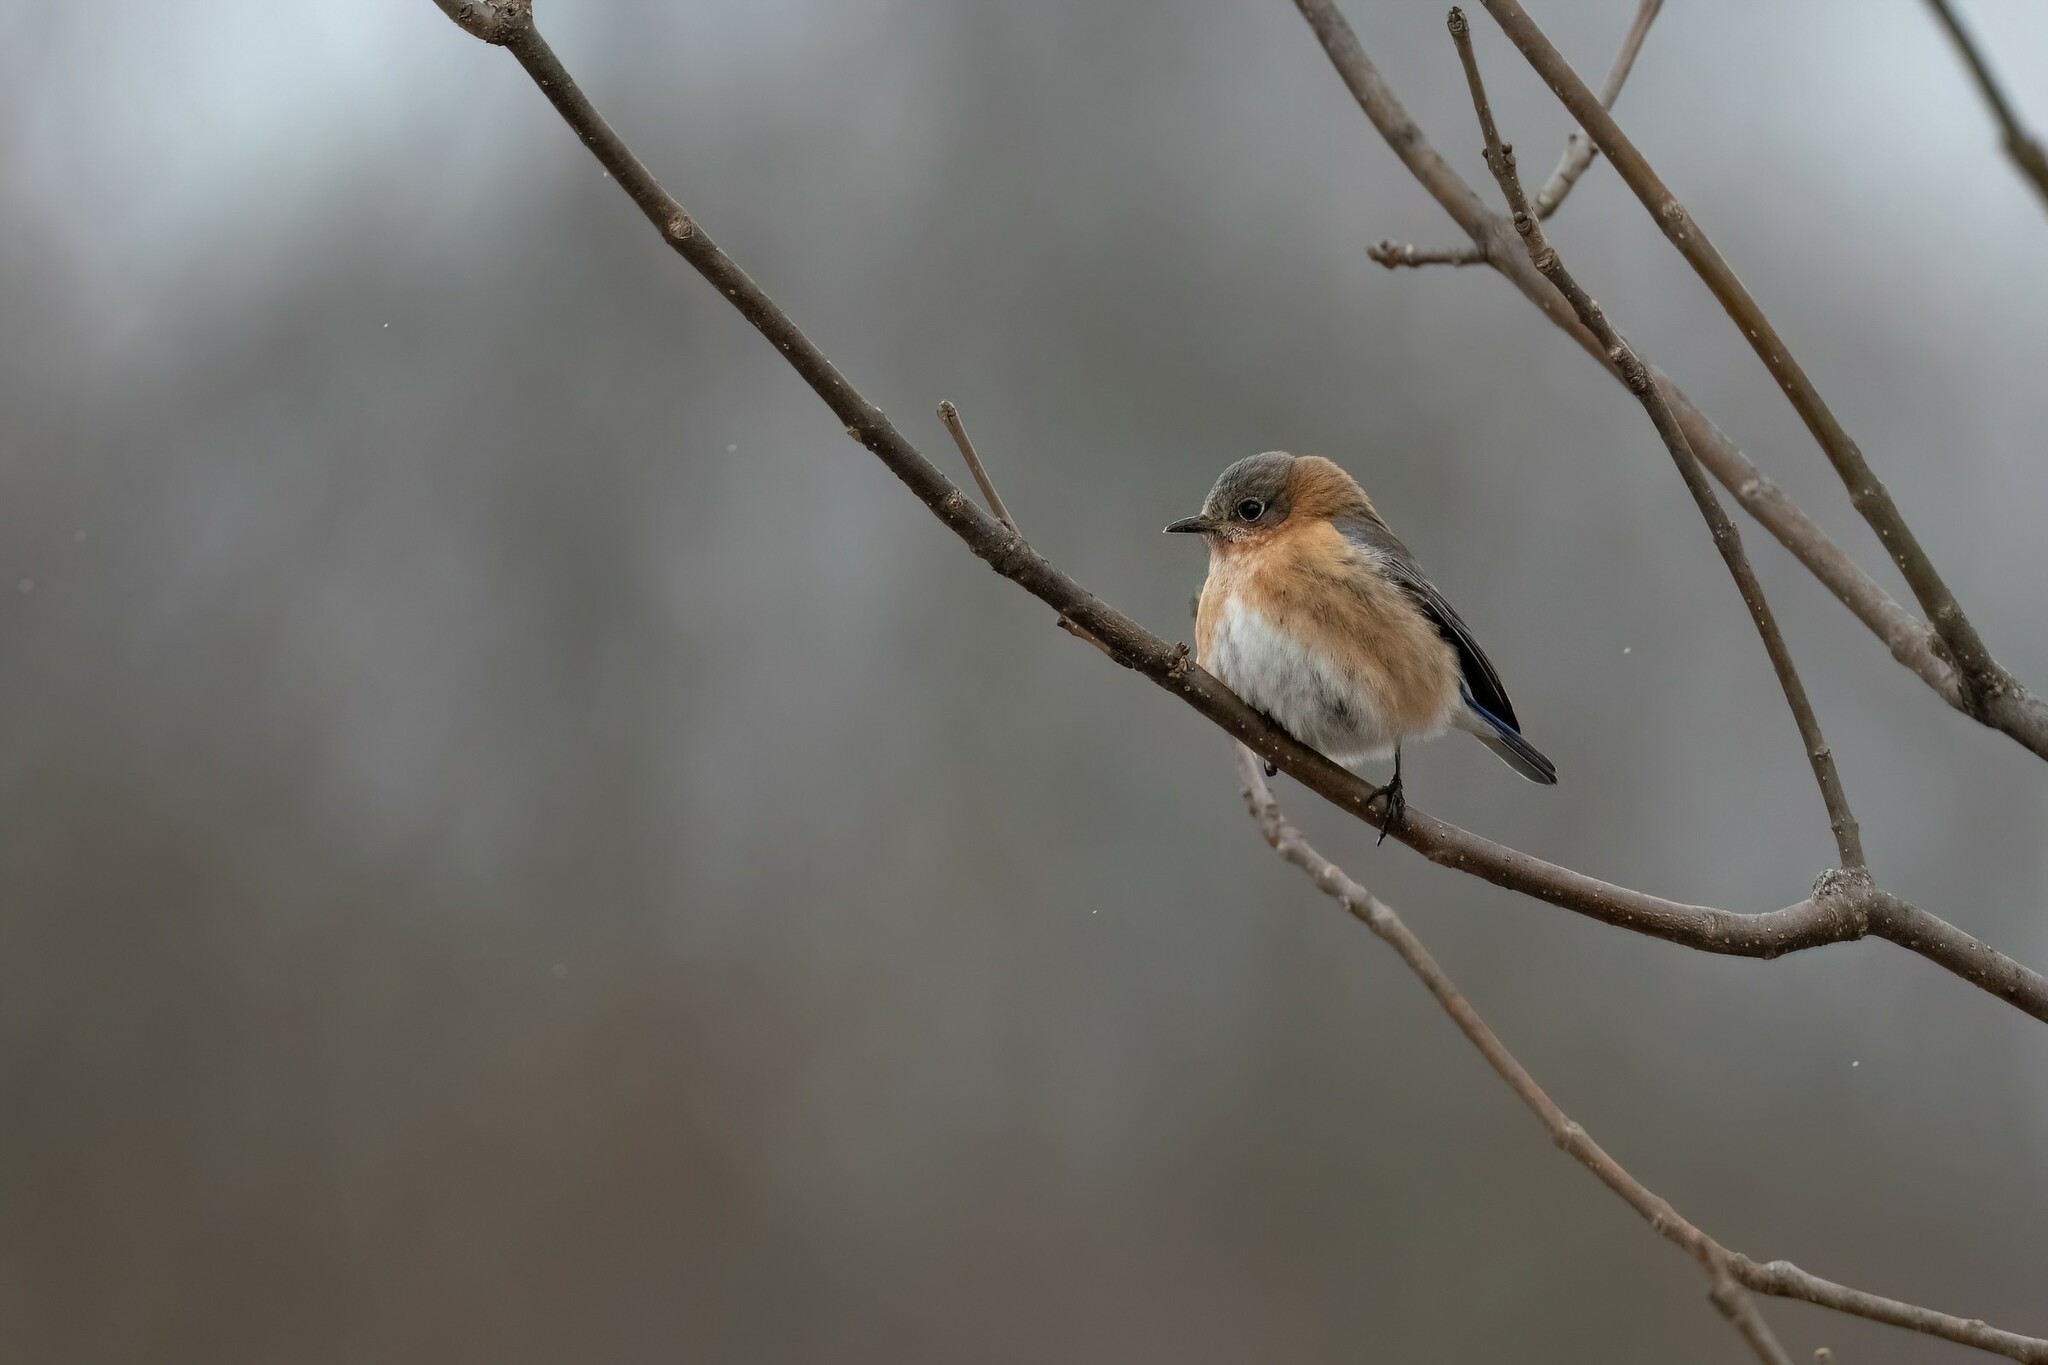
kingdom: Animalia
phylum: Chordata
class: Aves
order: Passeriformes
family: Turdidae
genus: Sialia
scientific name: Sialia sialis
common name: Eastern bluebird
